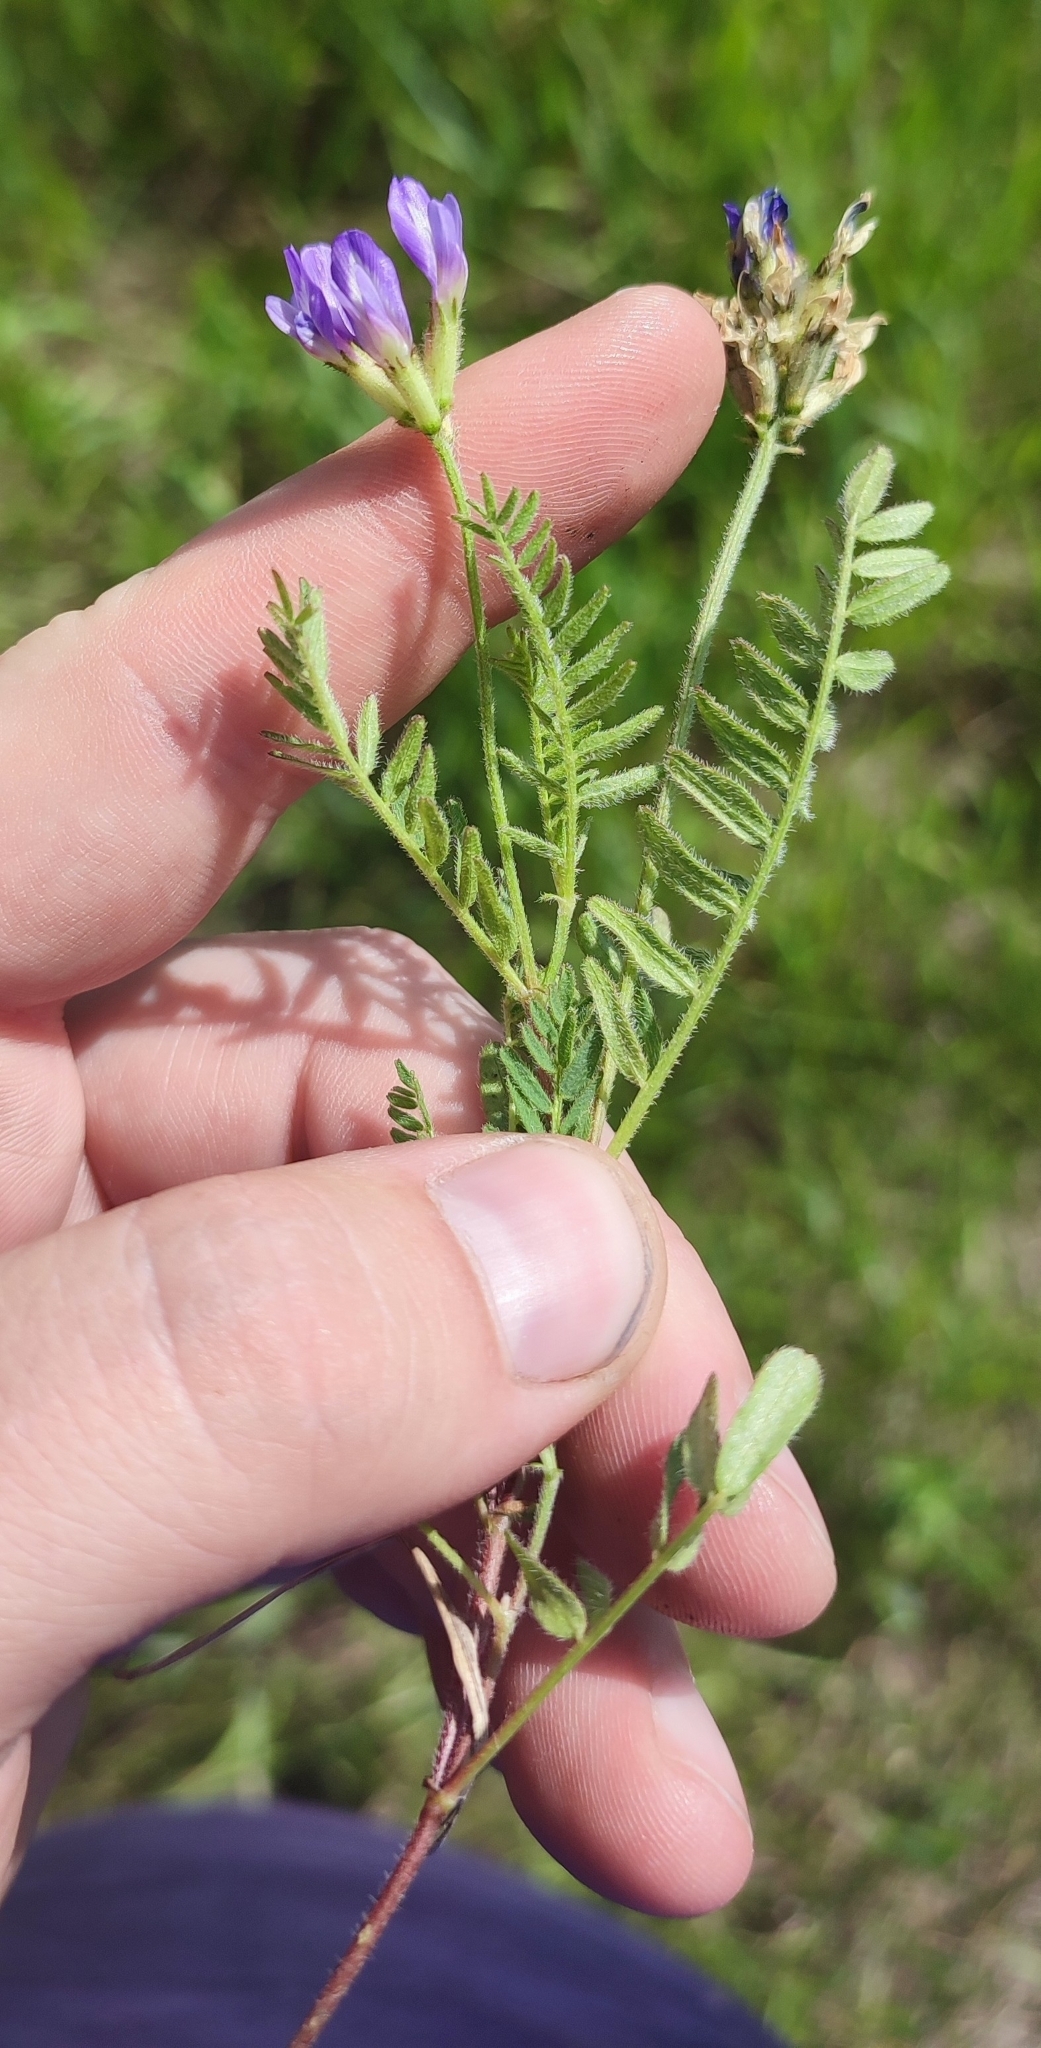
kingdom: Plantae
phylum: Tracheophyta
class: Magnoliopsida
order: Fabales
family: Fabaceae
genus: Astragalus
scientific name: Astragalus danicus
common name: Purple milk-vetch
